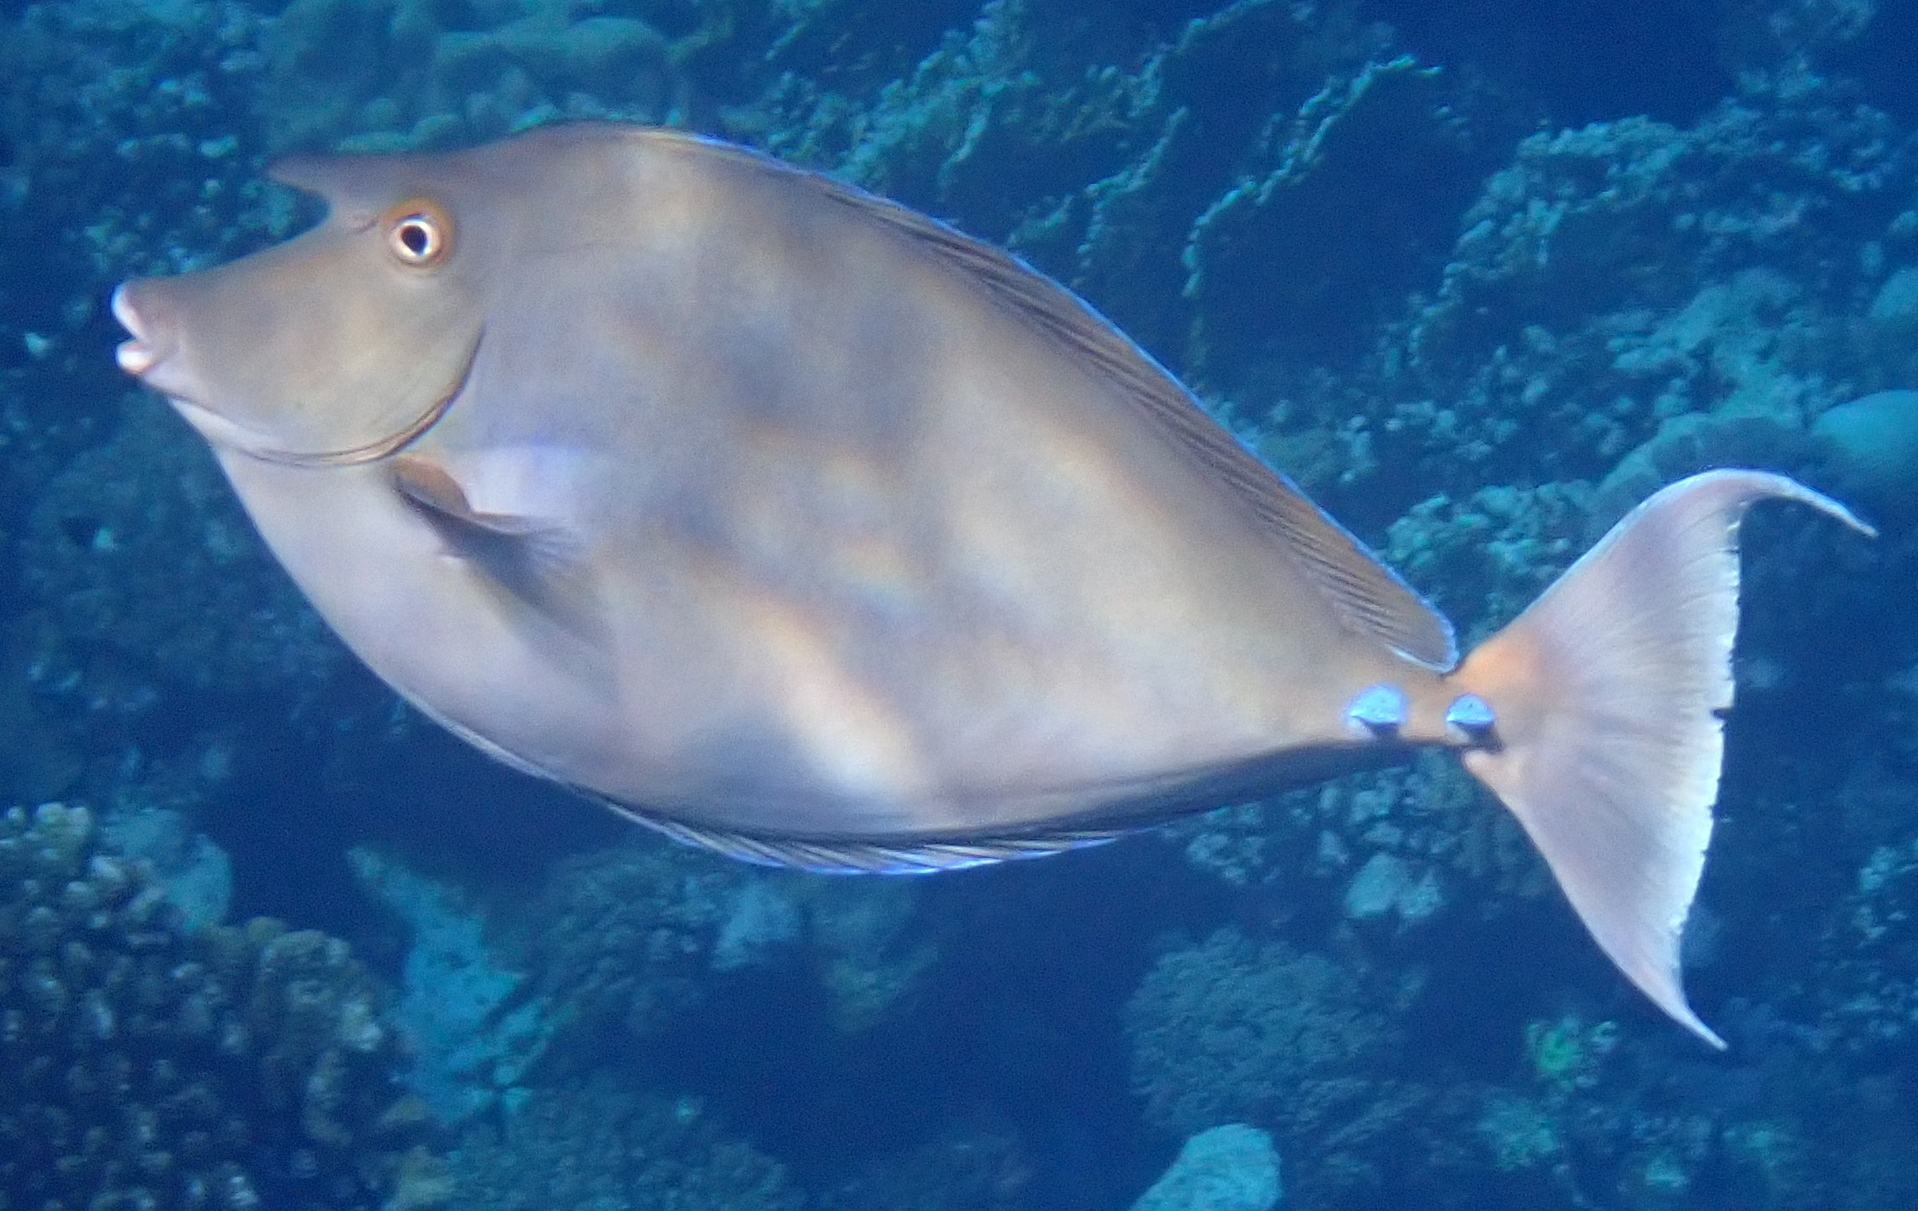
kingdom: Animalia
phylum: Chordata
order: Perciformes
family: Acanthuridae
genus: Naso
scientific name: Naso unicornis
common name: Bluespine unicornfish
